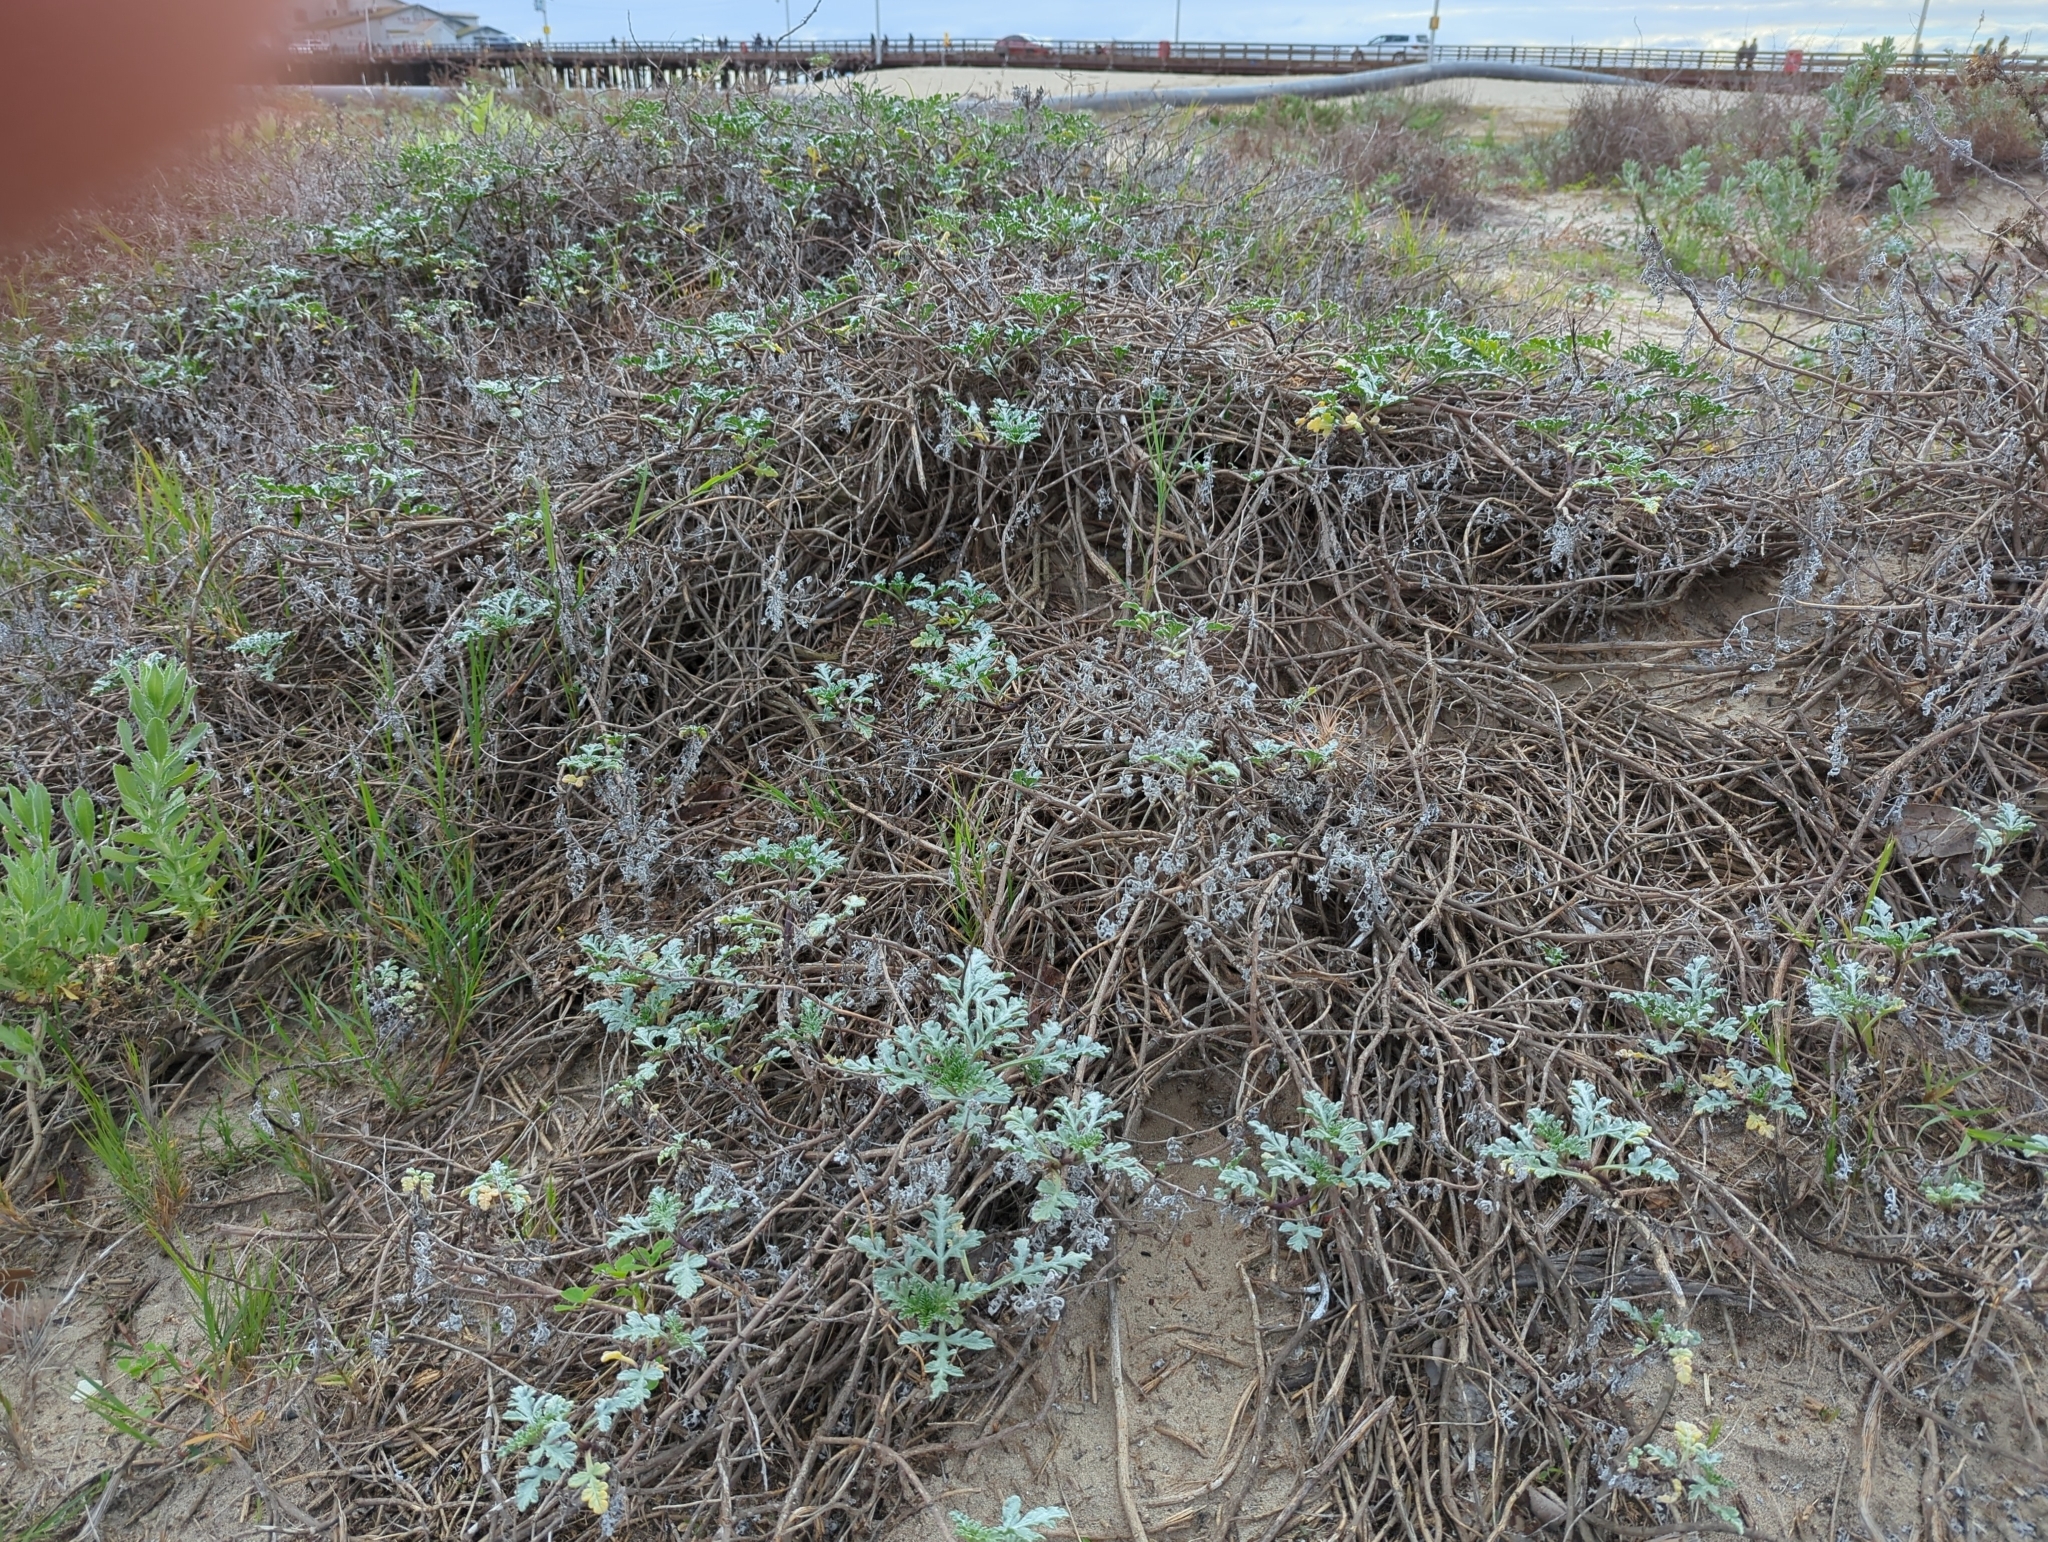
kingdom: Plantae
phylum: Tracheophyta
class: Magnoliopsida
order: Asterales
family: Asteraceae
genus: Ambrosia
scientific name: Ambrosia chamissonis
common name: Beachbur
